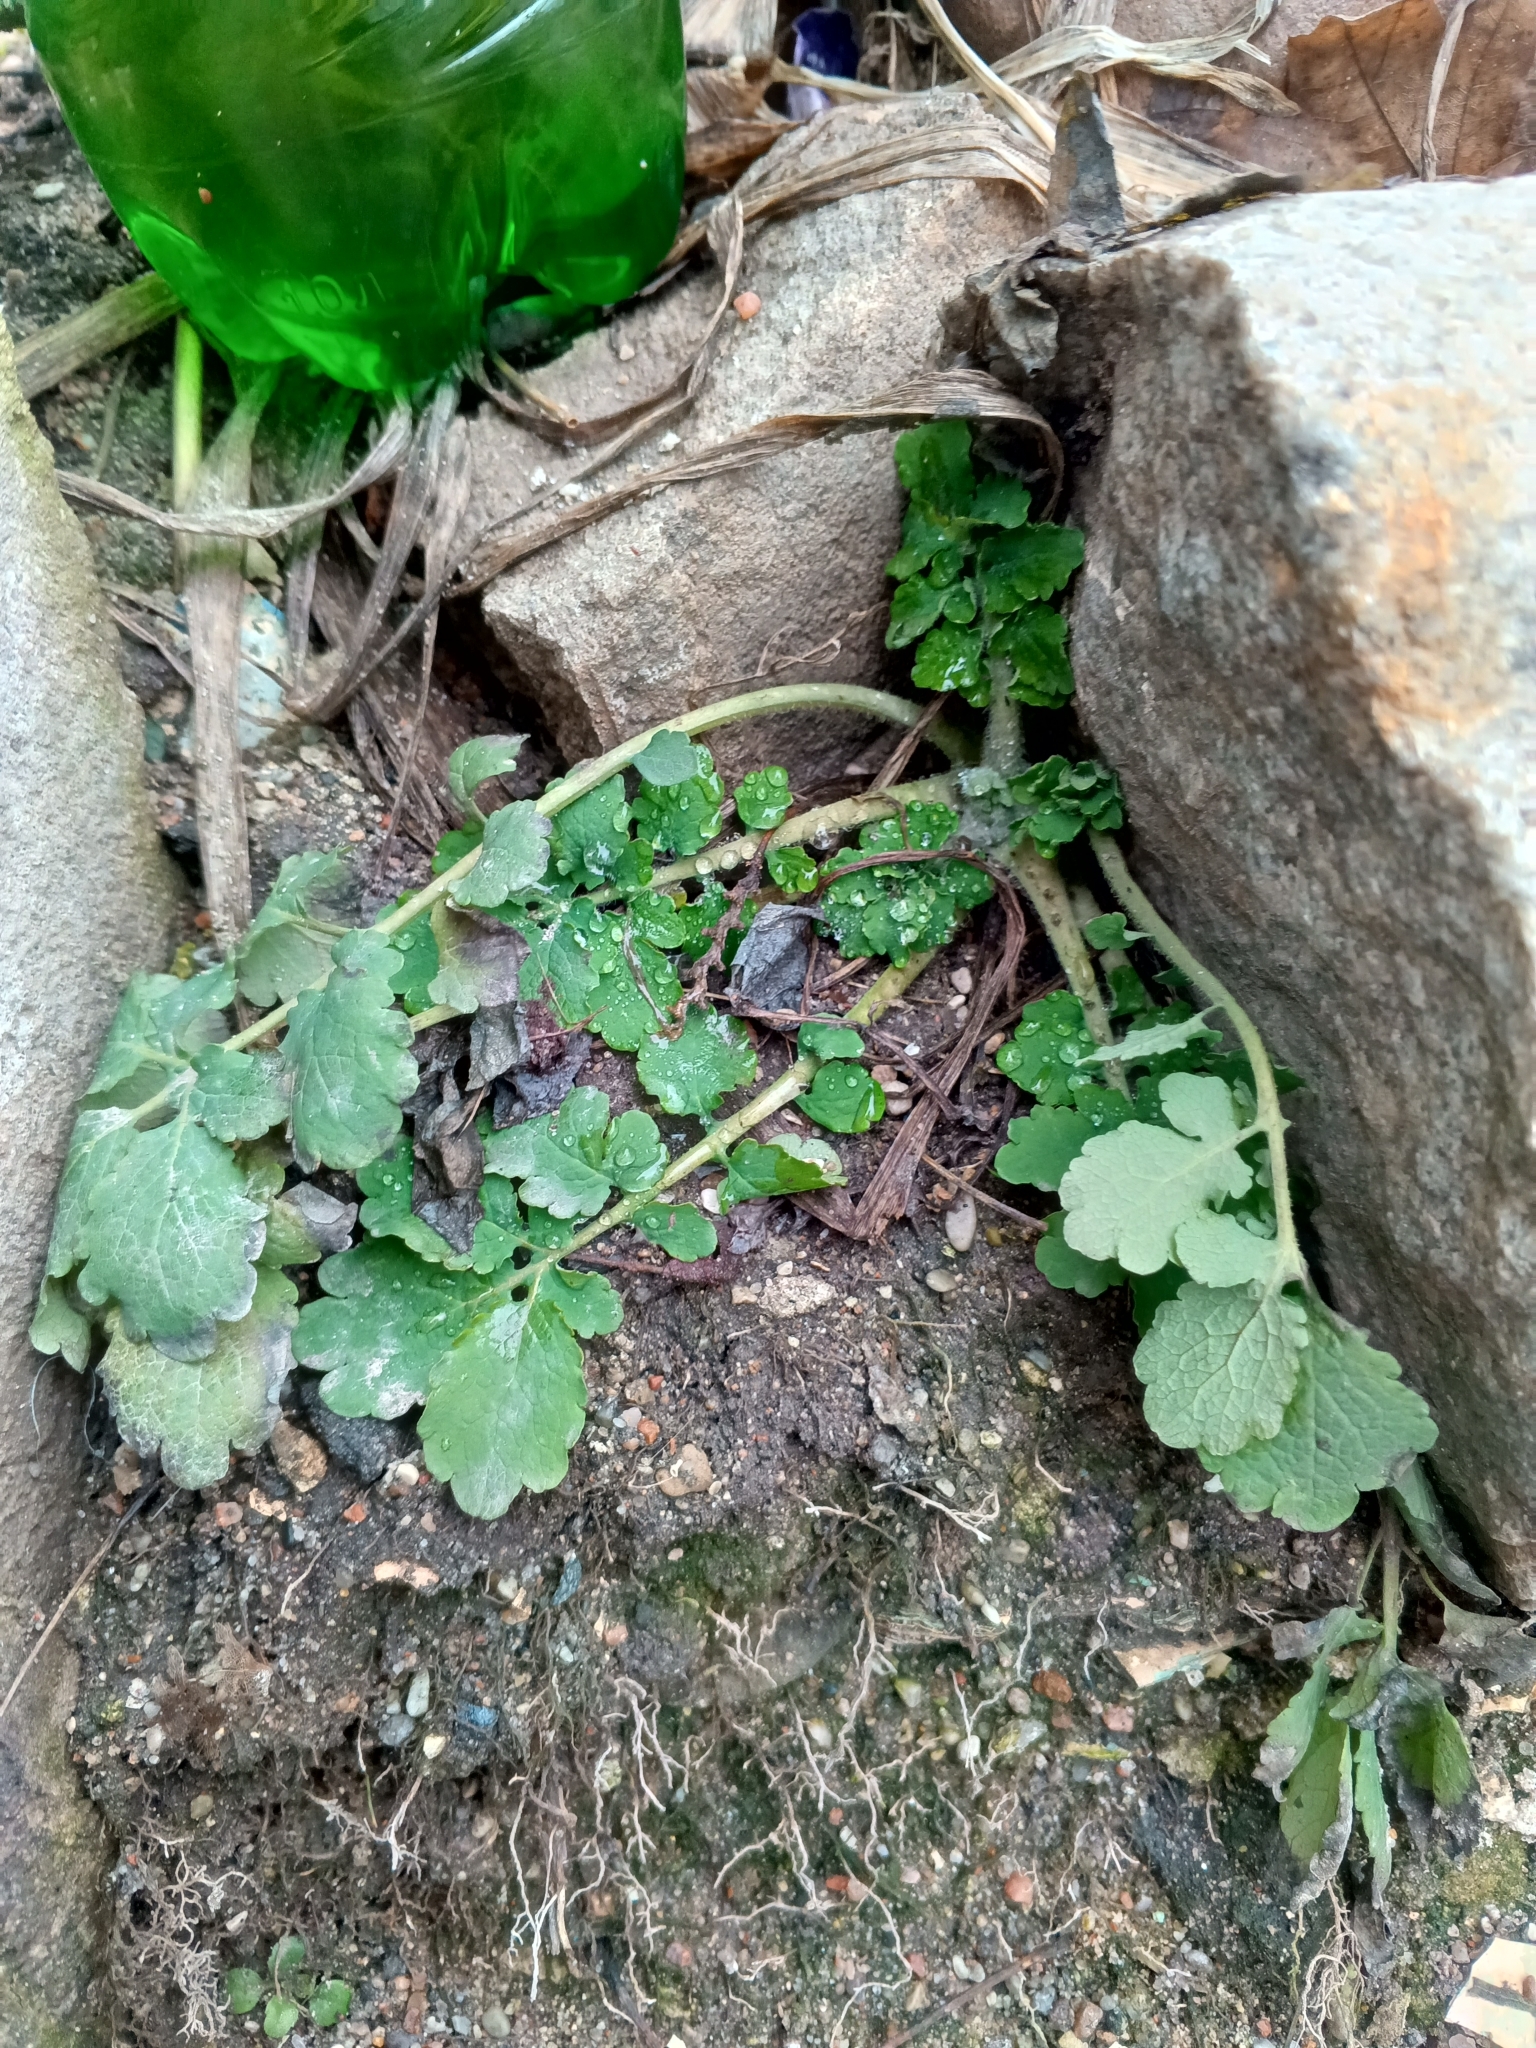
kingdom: Plantae
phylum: Tracheophyta
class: Magnoliopsida
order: Ranunculales
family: Papaveraceae
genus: Chelidonium
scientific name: Chelidonium majus
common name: Greater celandine
